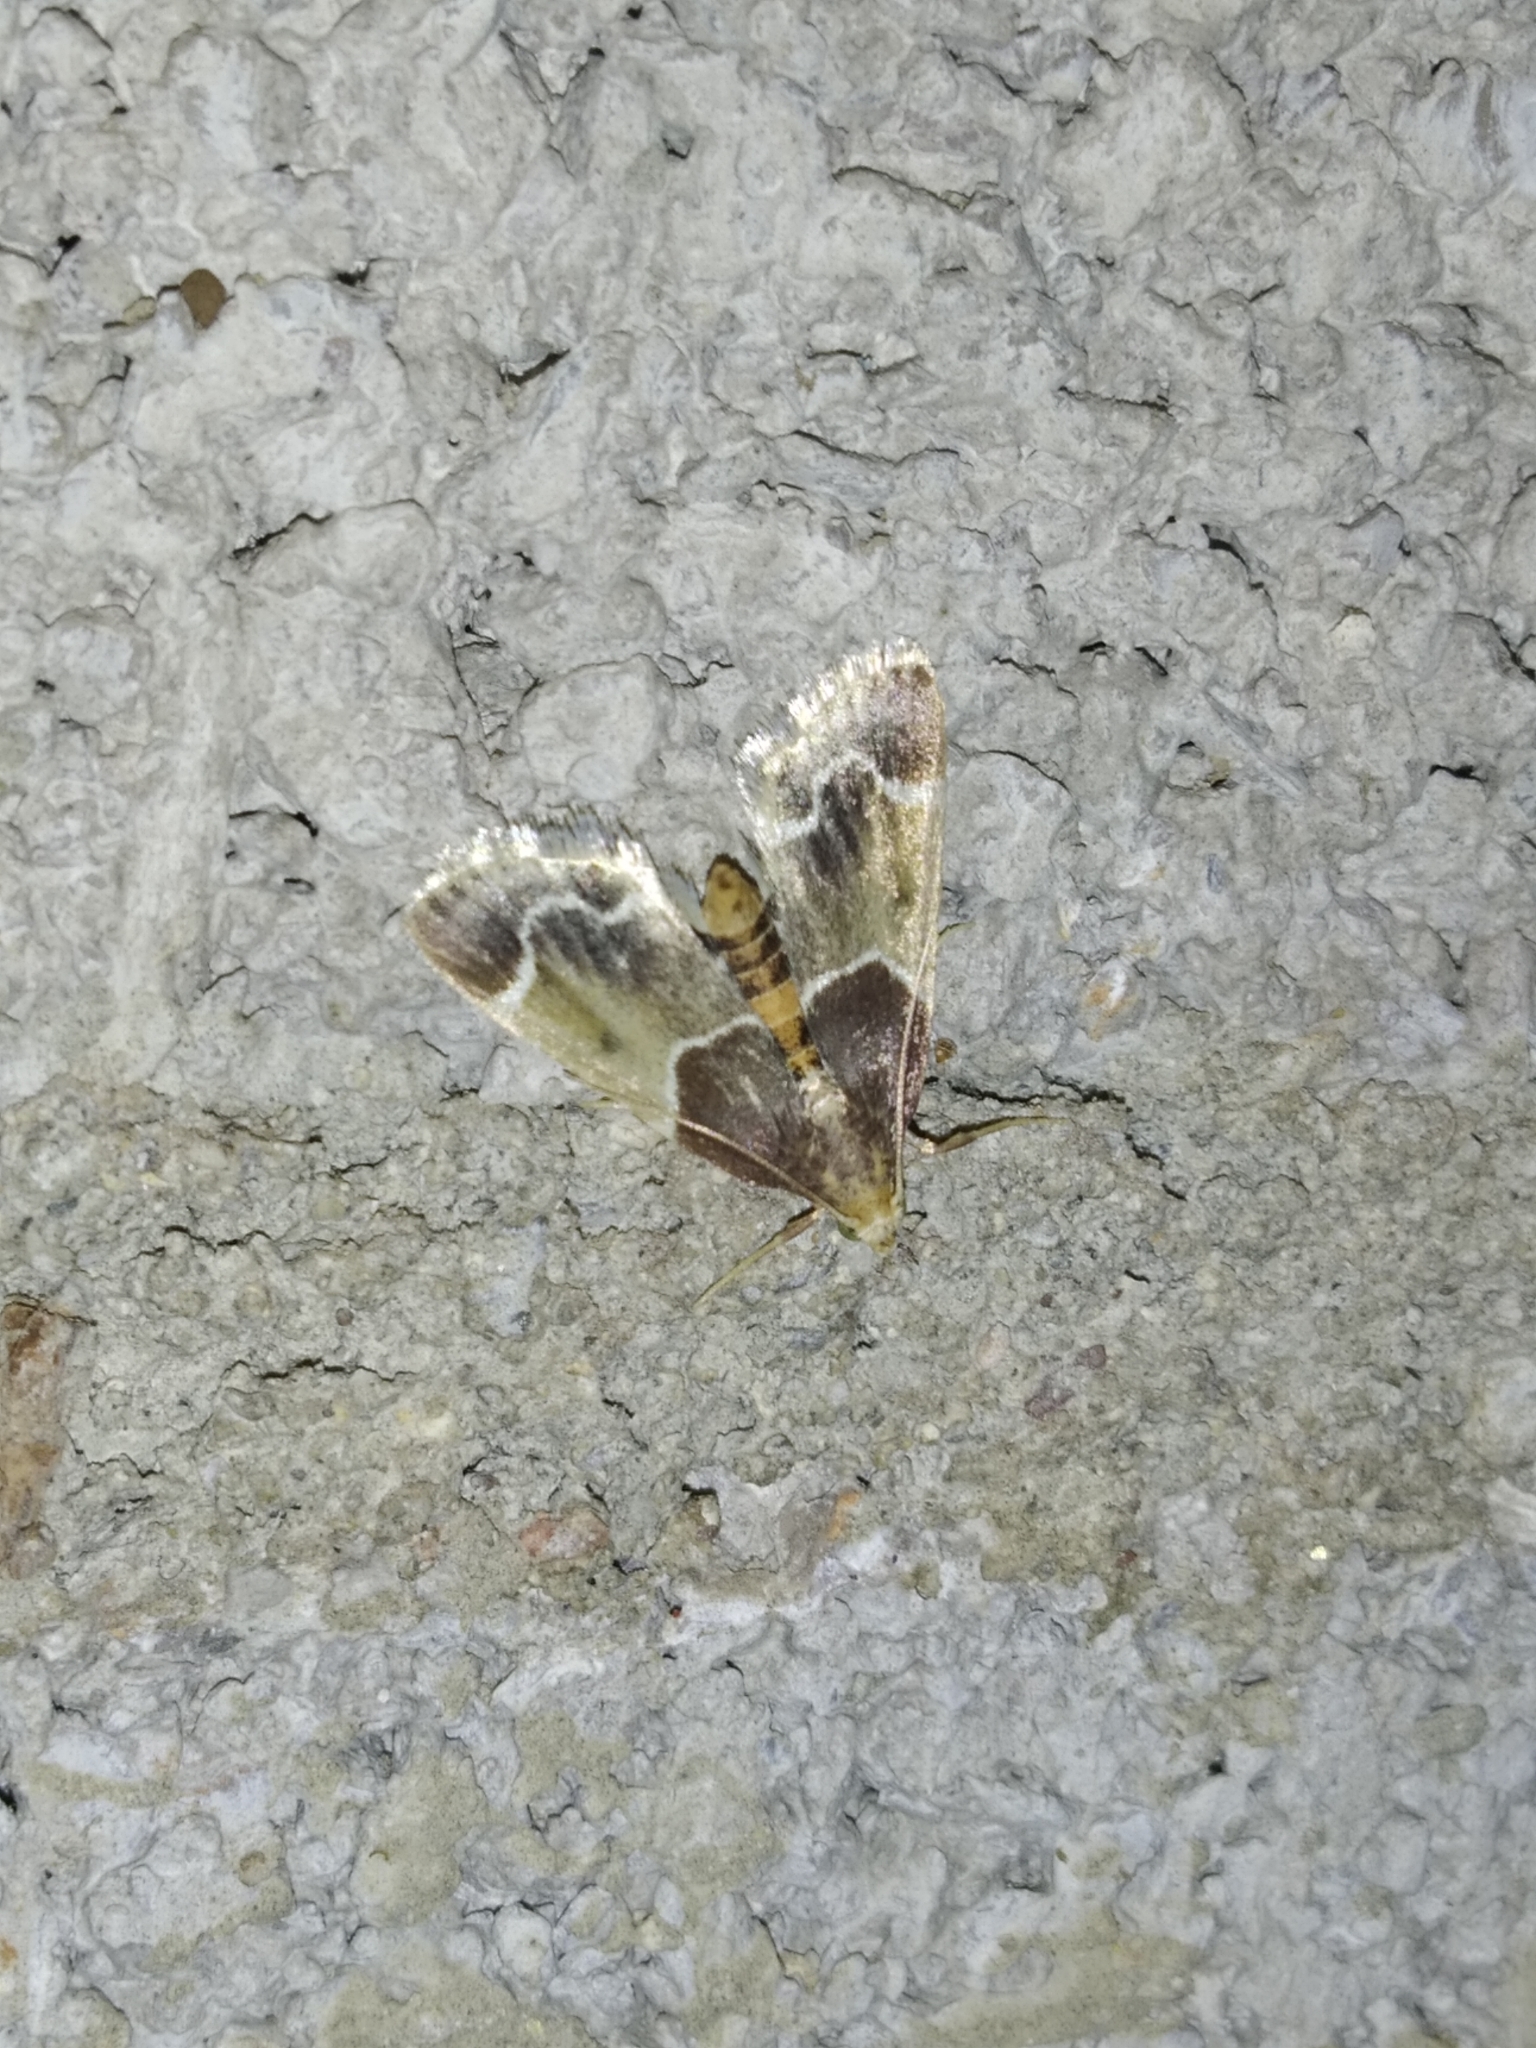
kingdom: Animalia
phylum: Arthropoda
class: Insecta
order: Lepidoptera
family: Pyralidae
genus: Pyralis
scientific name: Pyralis farinalis
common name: Meal moth
